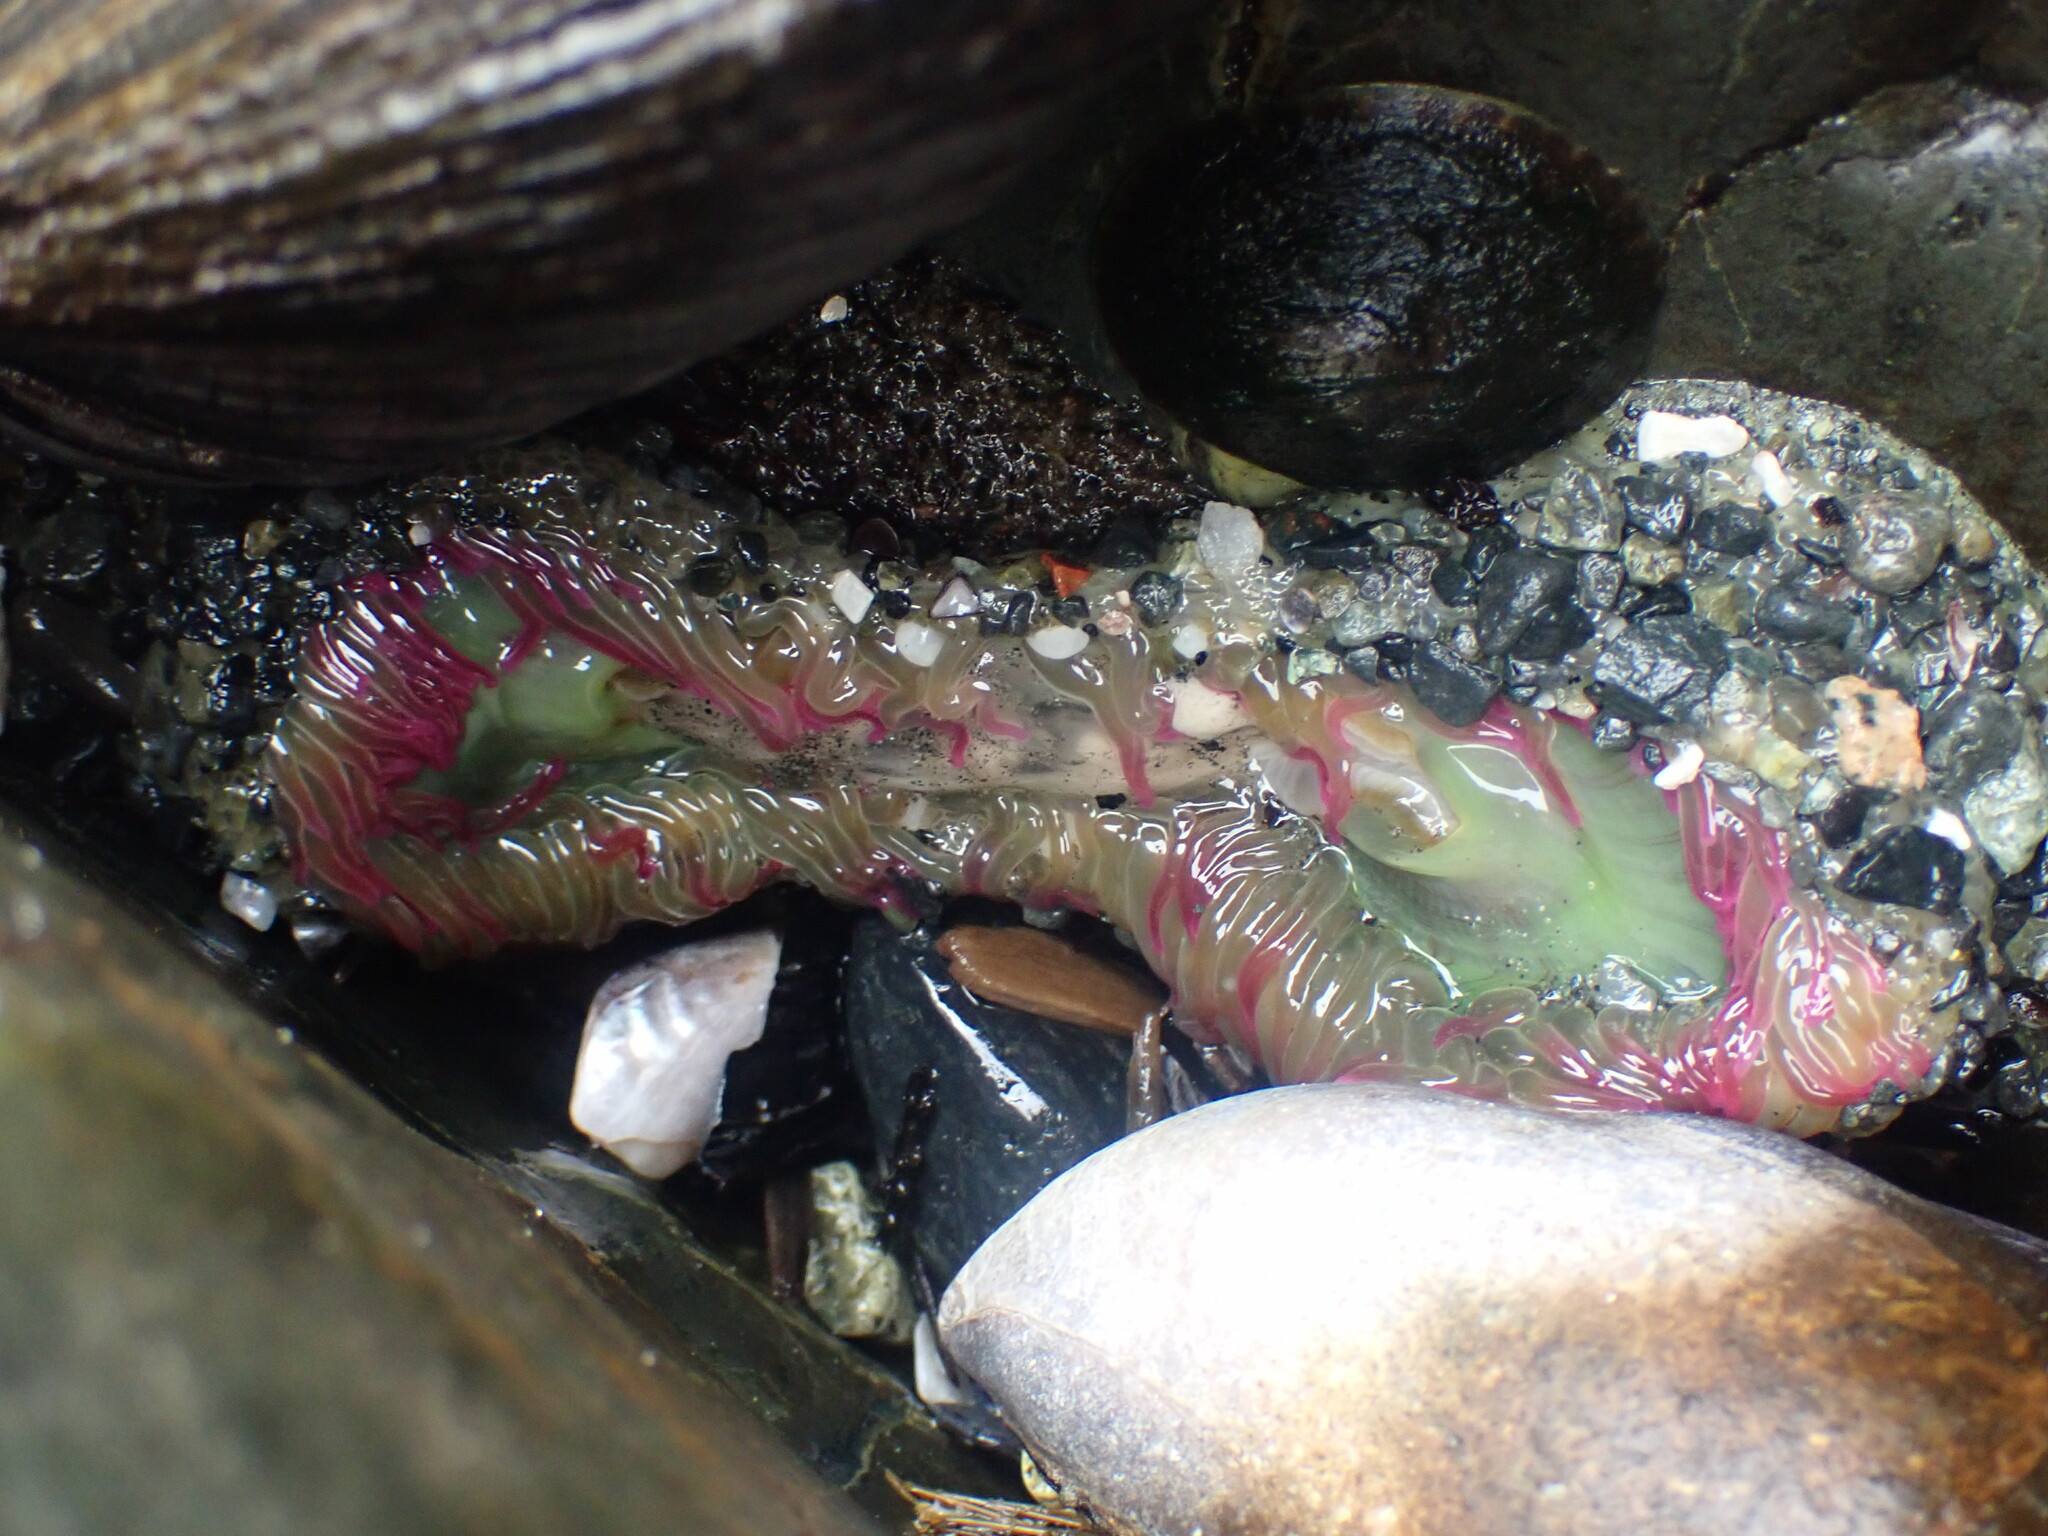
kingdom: Animalia
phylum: Cnidaria
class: Anthozoa
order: Actiniaria
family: Actiniidae
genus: Anthopleura
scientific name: Anthopleura elegantissima
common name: Clonal anemone
